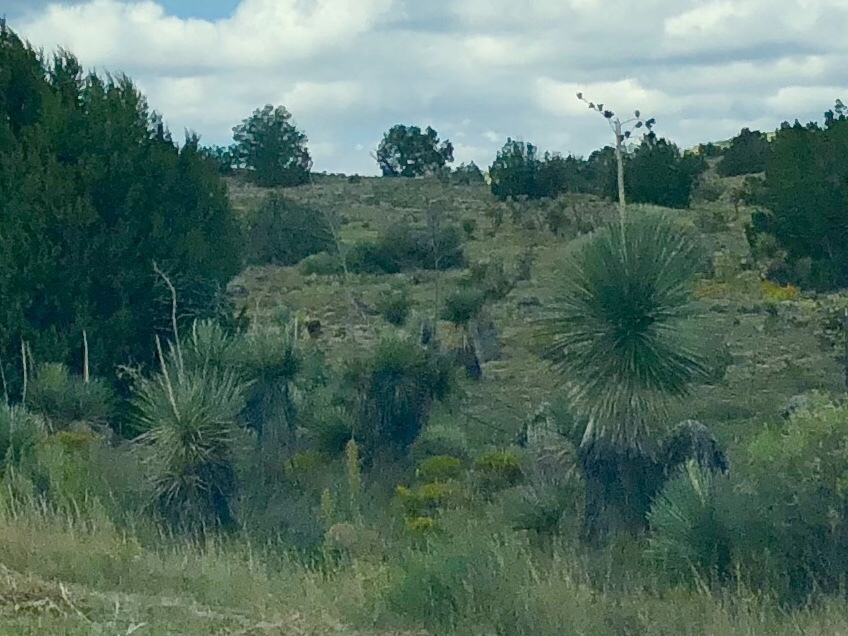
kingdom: Plantae
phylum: Tracheophyta
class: Liliopsida
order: Asparagales
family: Asparagaceae
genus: Yucca
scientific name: Yucca elata
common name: Palmella
